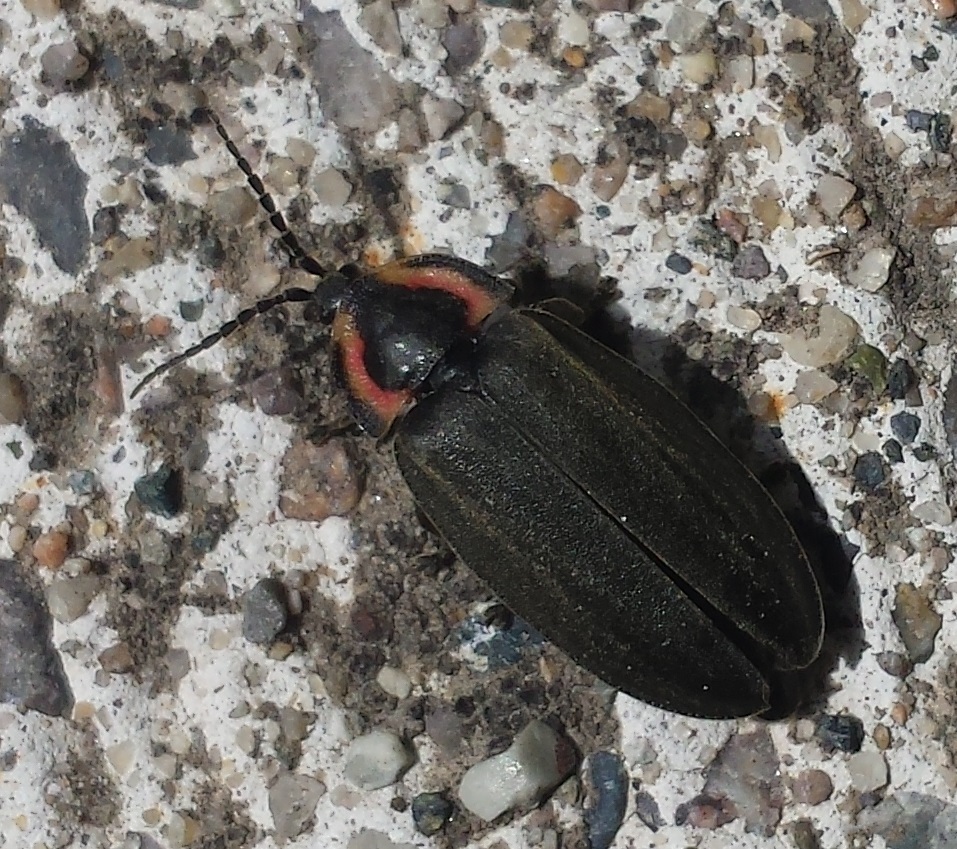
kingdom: Animalia
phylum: Arthropoda
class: Insecta
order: Coleoptera
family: Lampyridae
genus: Photinus
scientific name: Photinus corrusca
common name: Winter firefly
